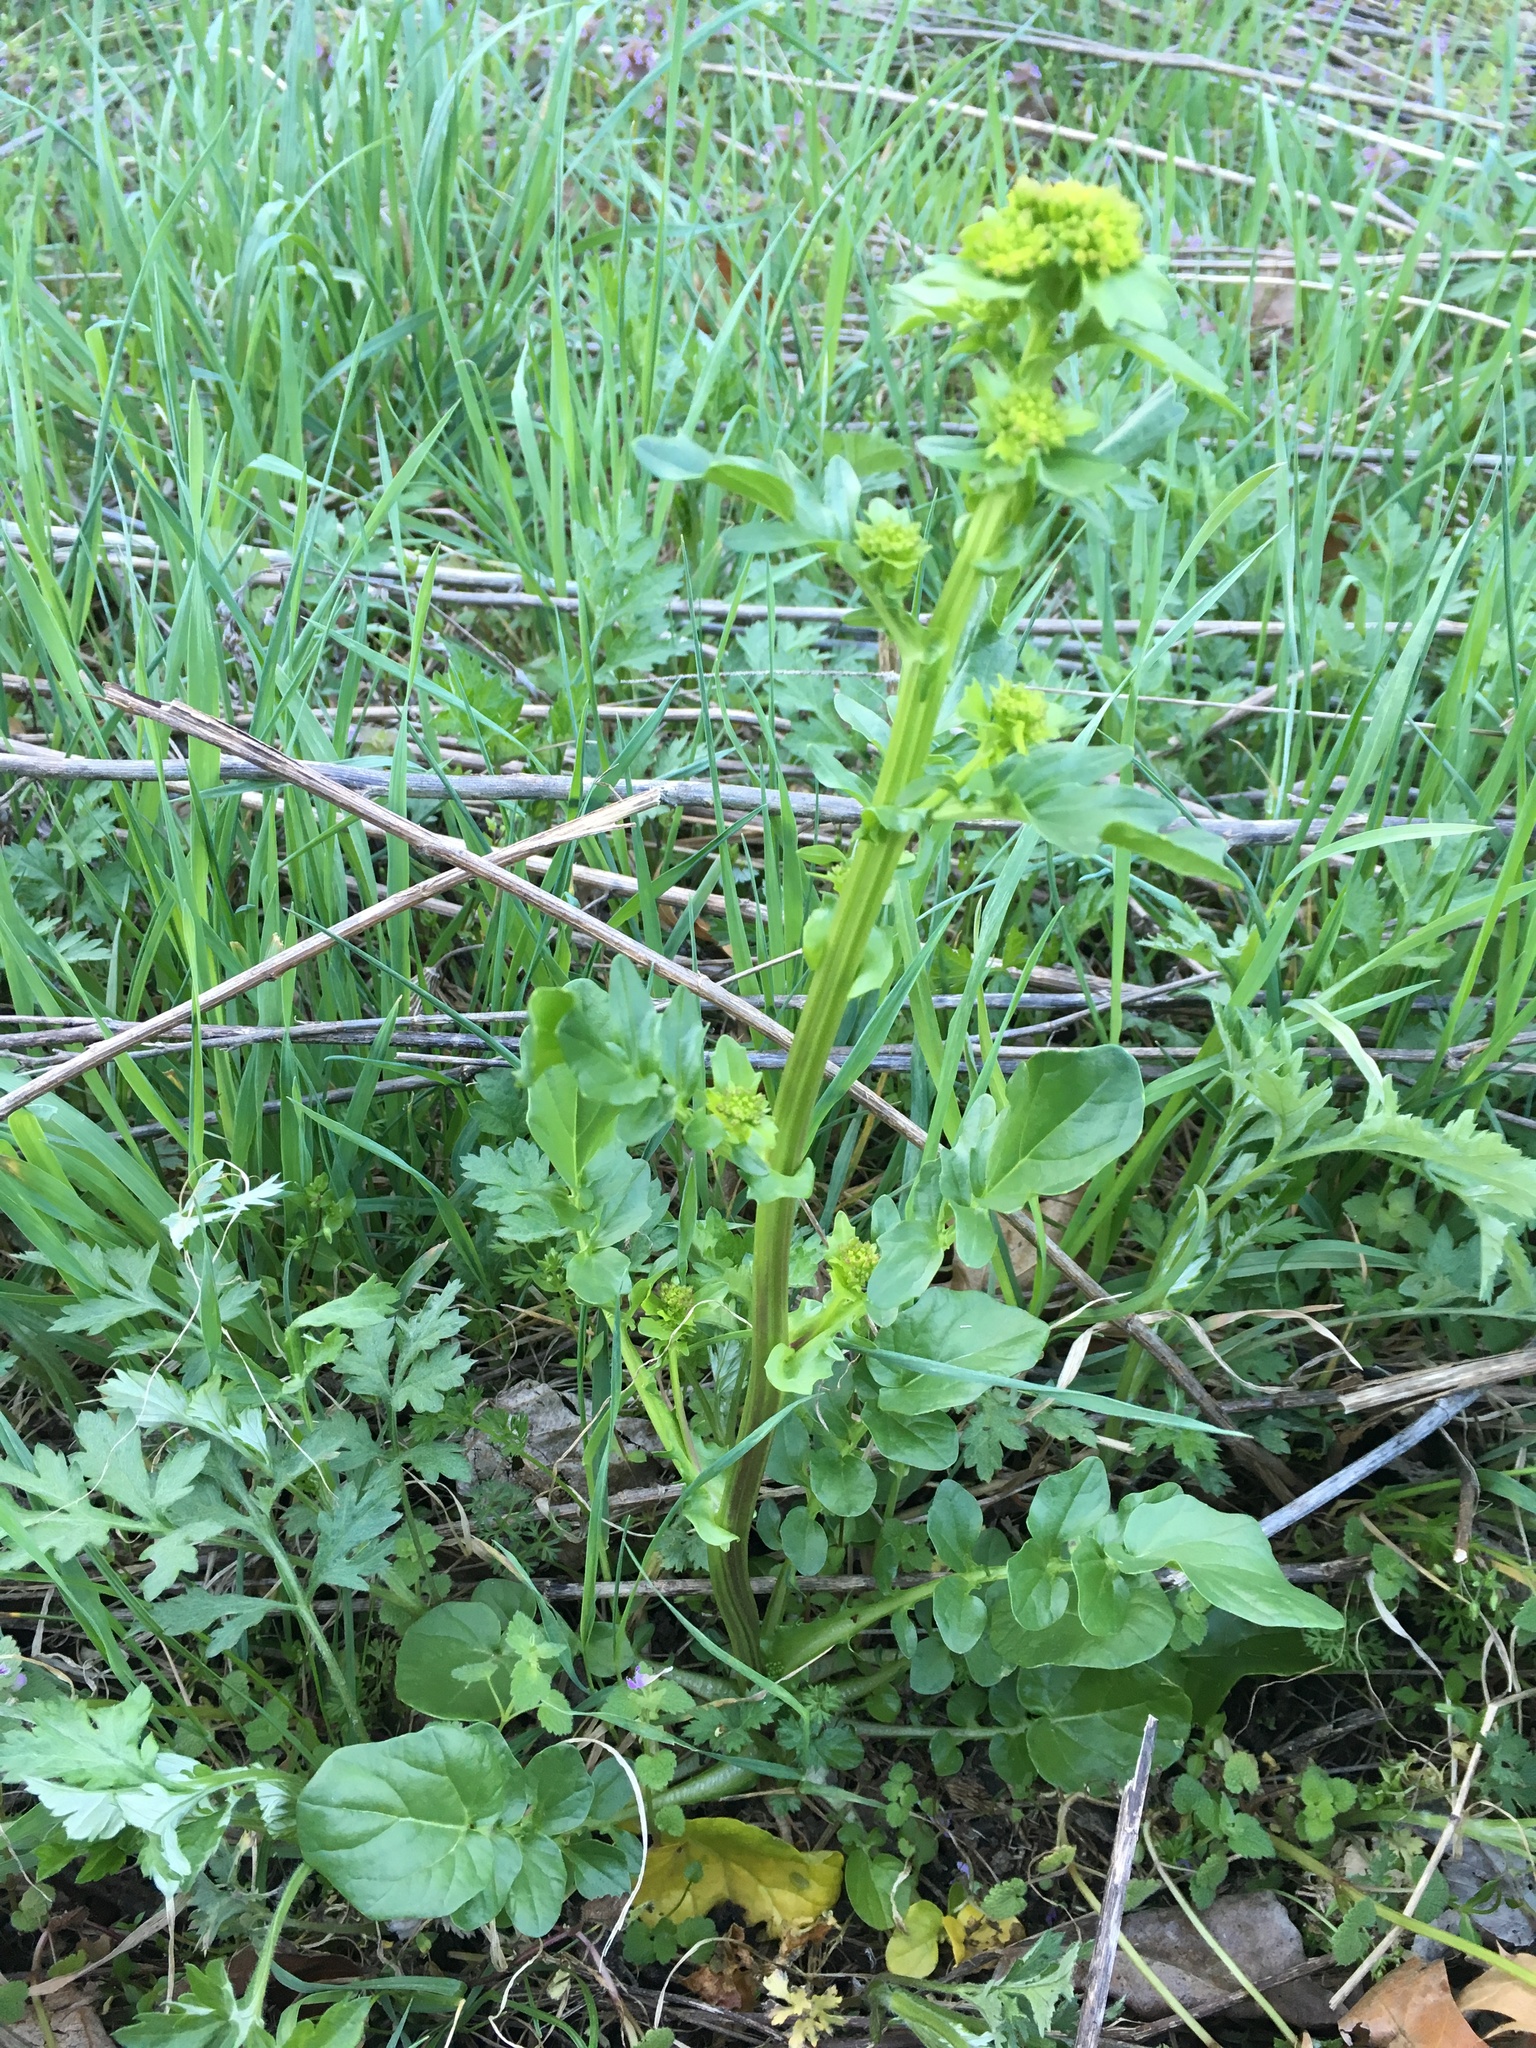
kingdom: Plantae
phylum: Tracheophyta
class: Magnoliopsida
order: Brassicales
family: Brassicaceae
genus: Barbarea
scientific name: Barbarea vulgaris
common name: Cressy-greens
